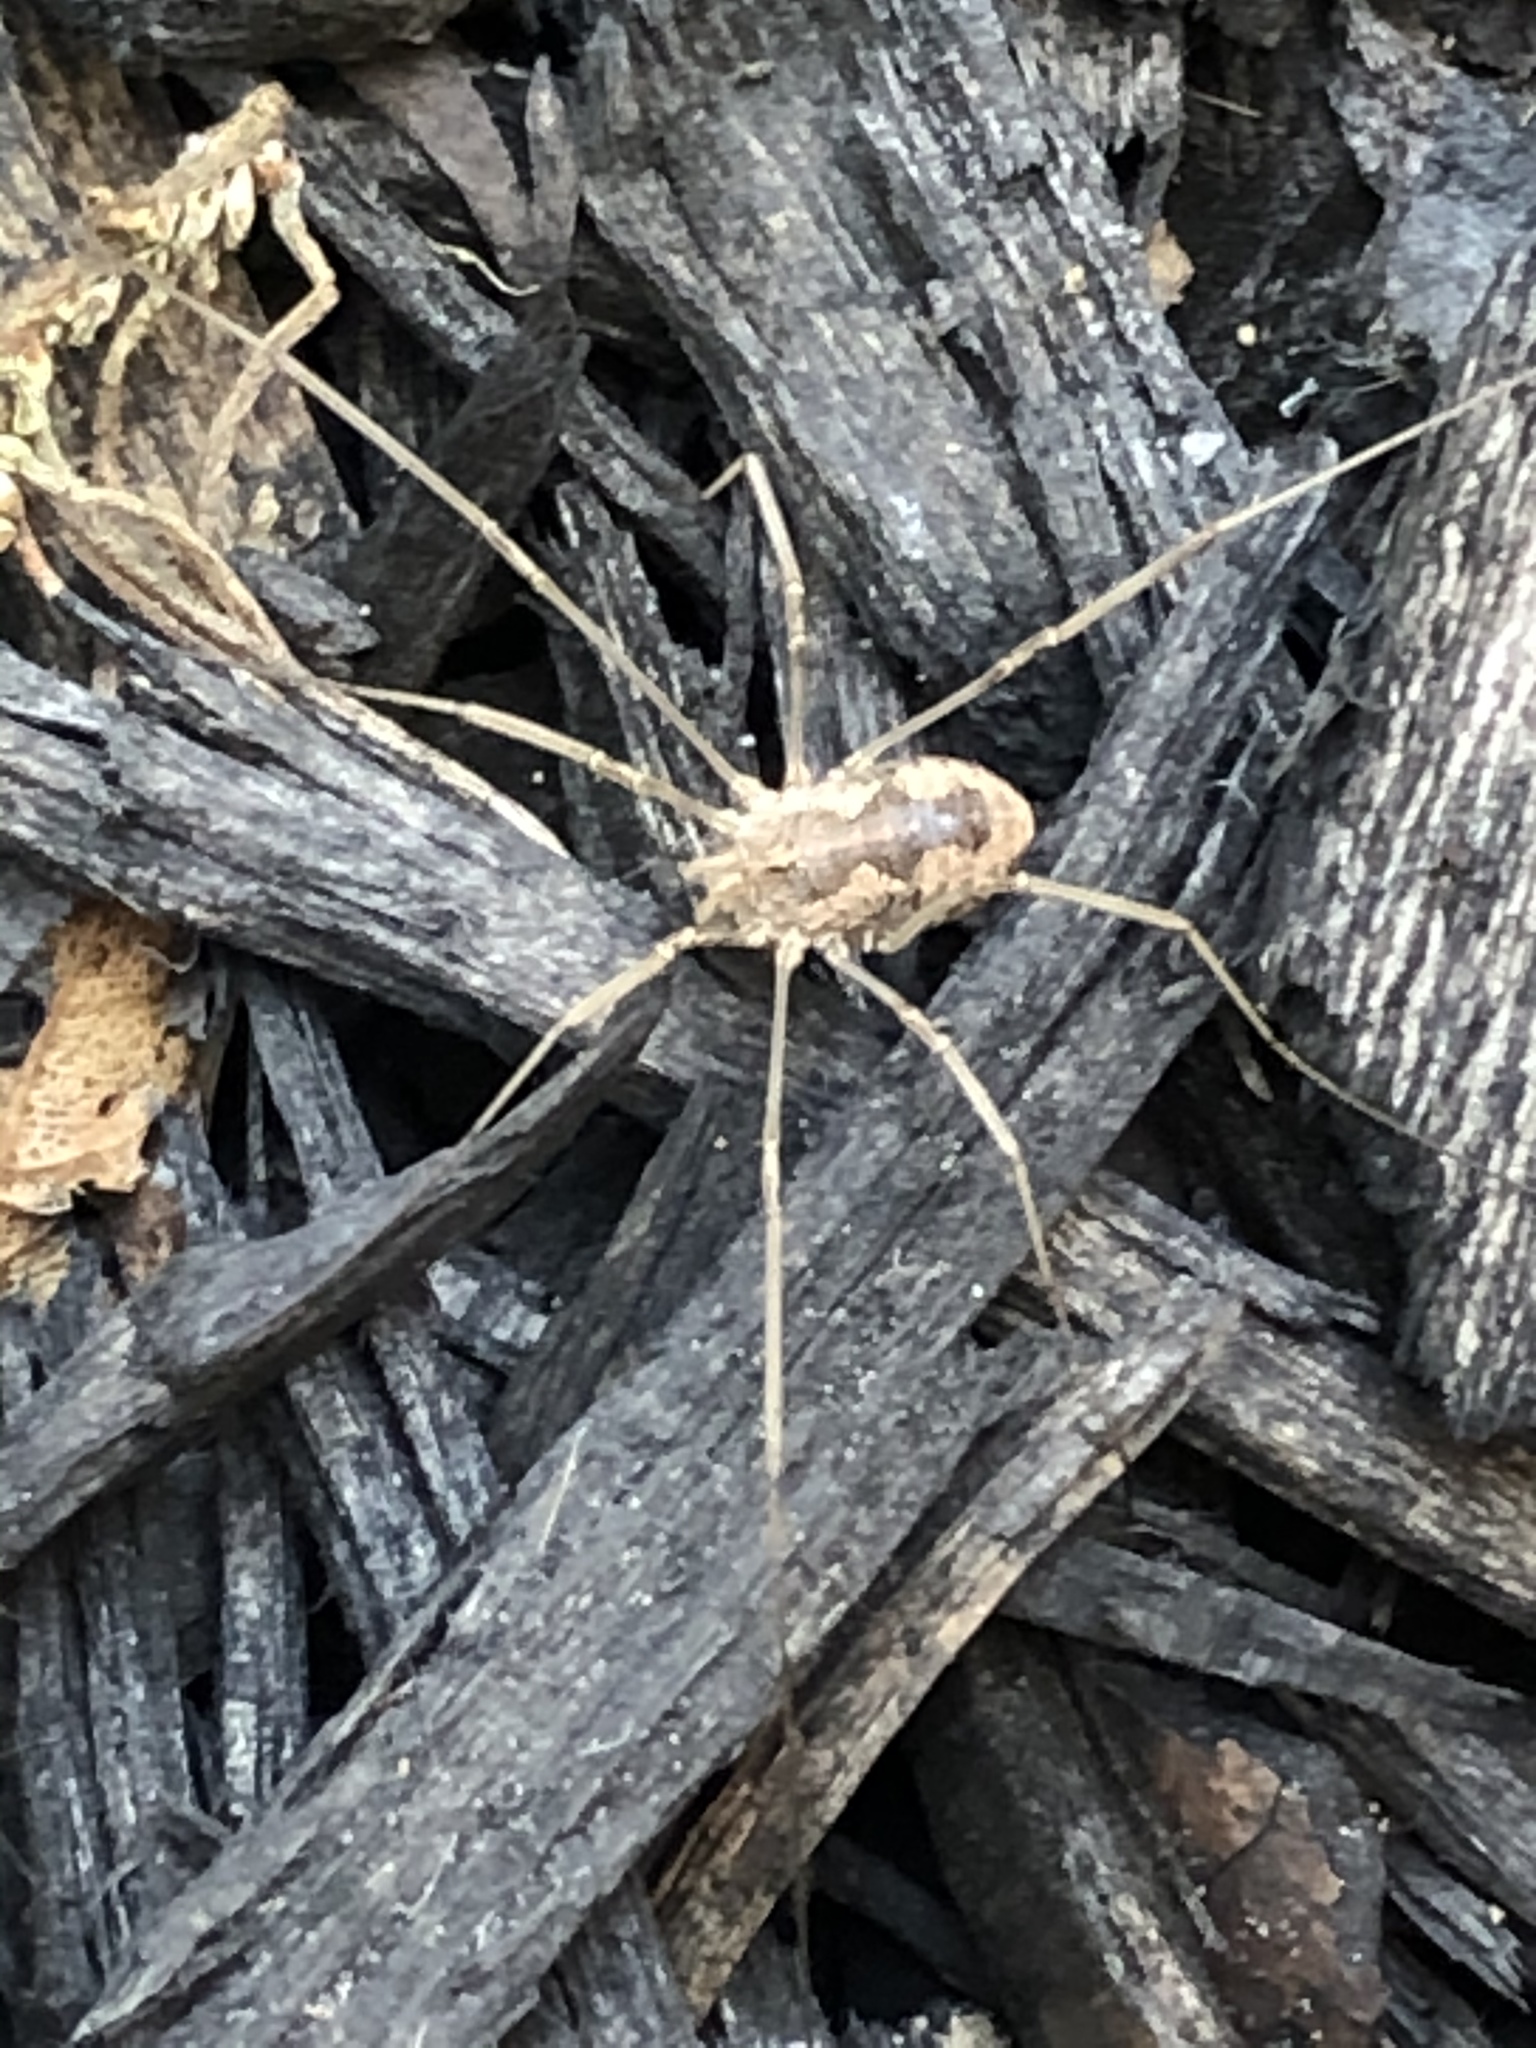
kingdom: Animalia
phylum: Arthropoda
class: Arachnida
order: Opiliones
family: Phalangiidae
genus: Phalangium
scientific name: Phalangium opilio
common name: Daddy longleg
